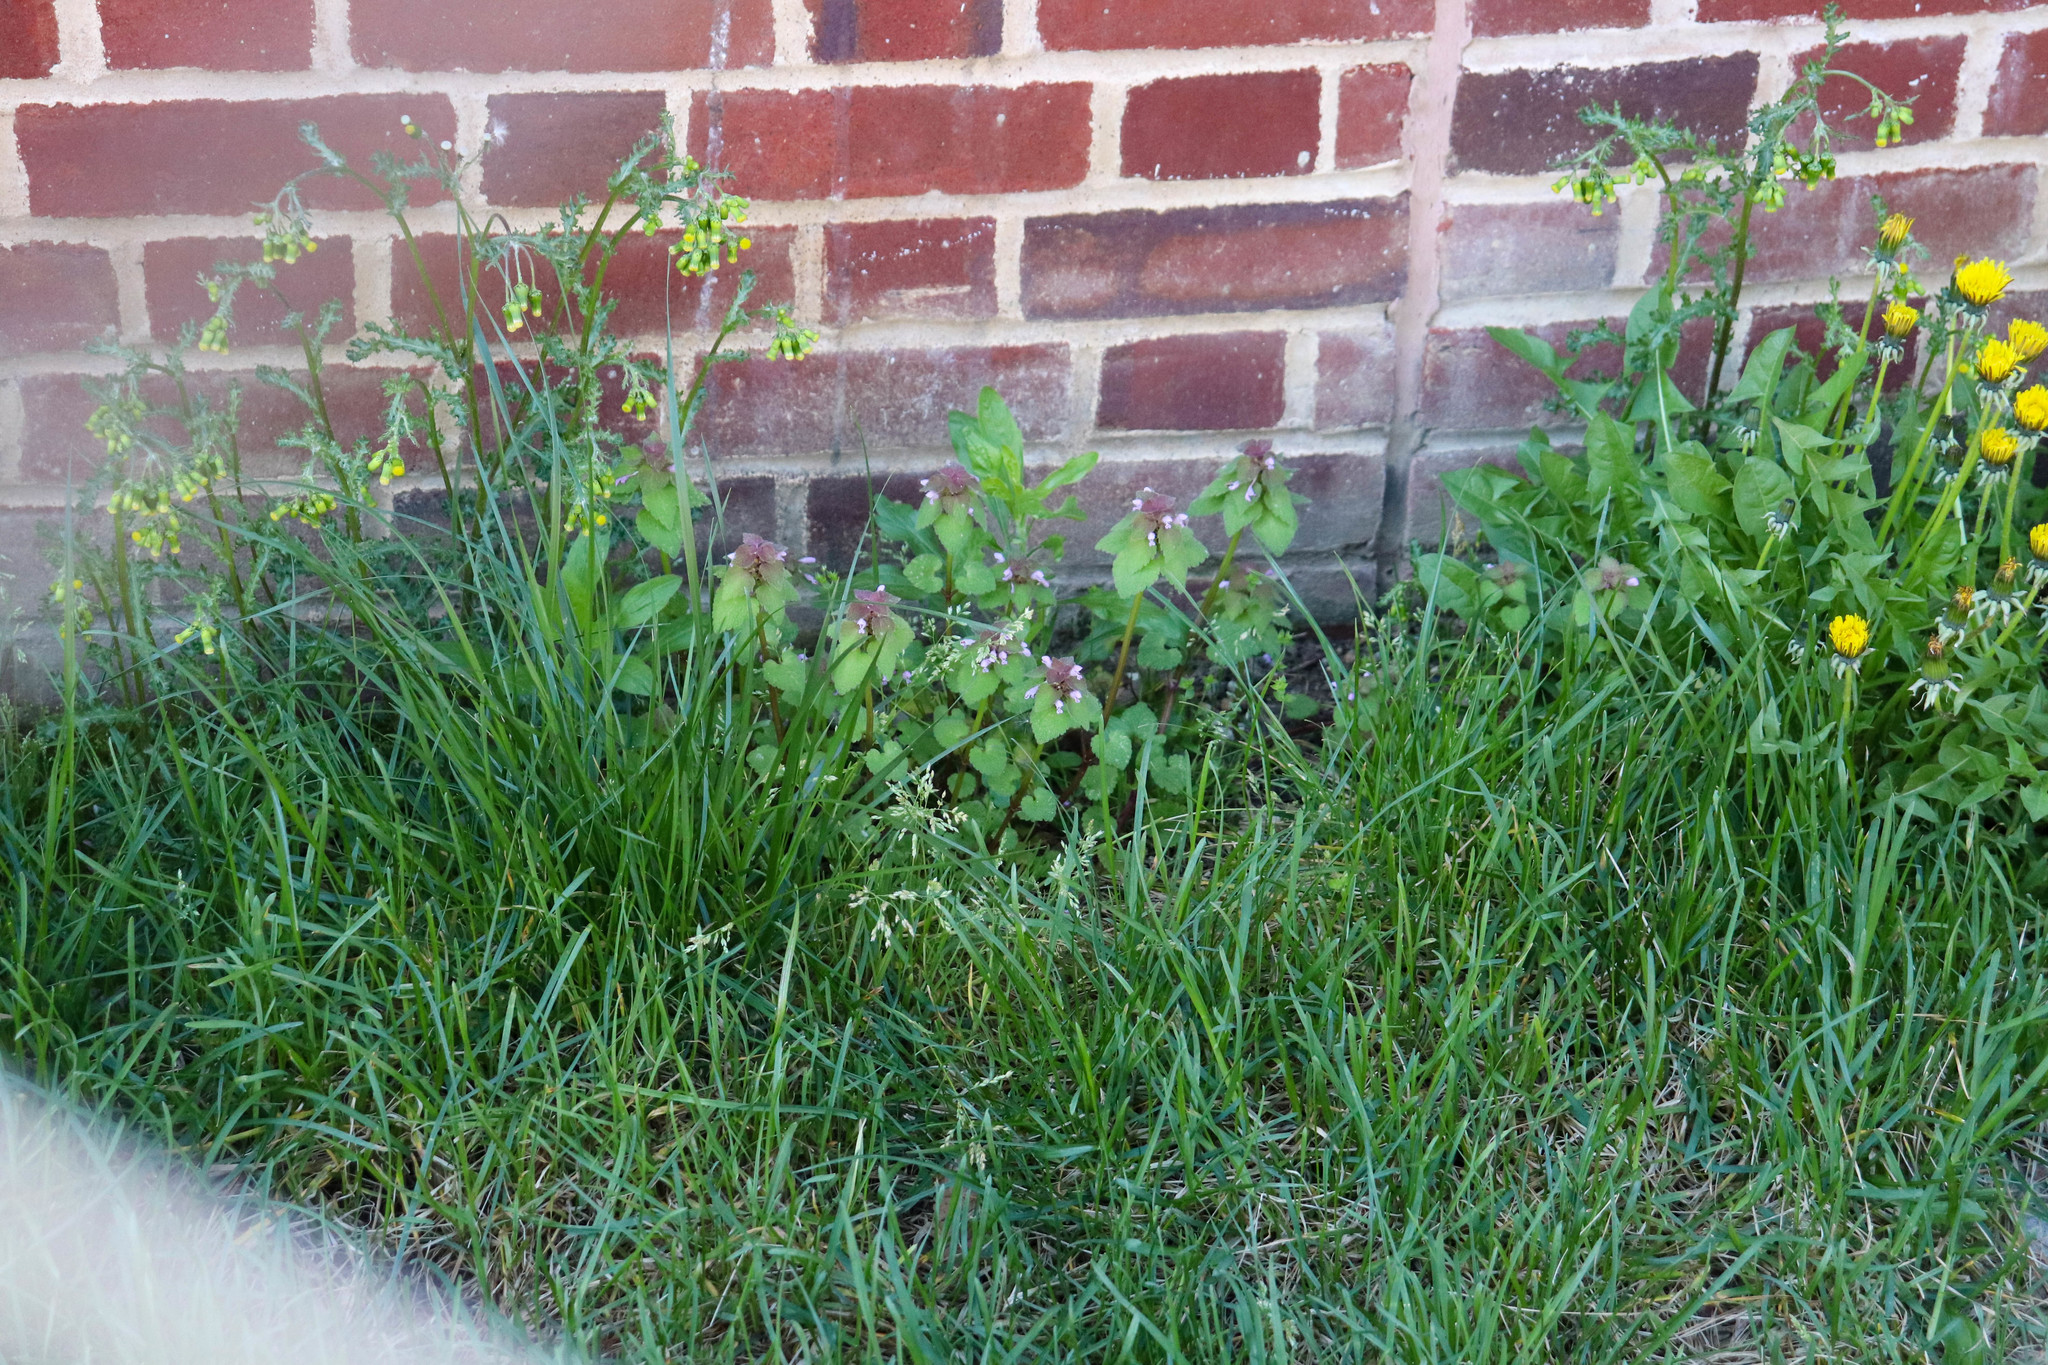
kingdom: Plantae
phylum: Tracheophyta
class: Magnoliopsida
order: Lamiales
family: Lamiaceae
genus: Lamium
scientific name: Lamium purpureum
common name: Red dead-nettle
